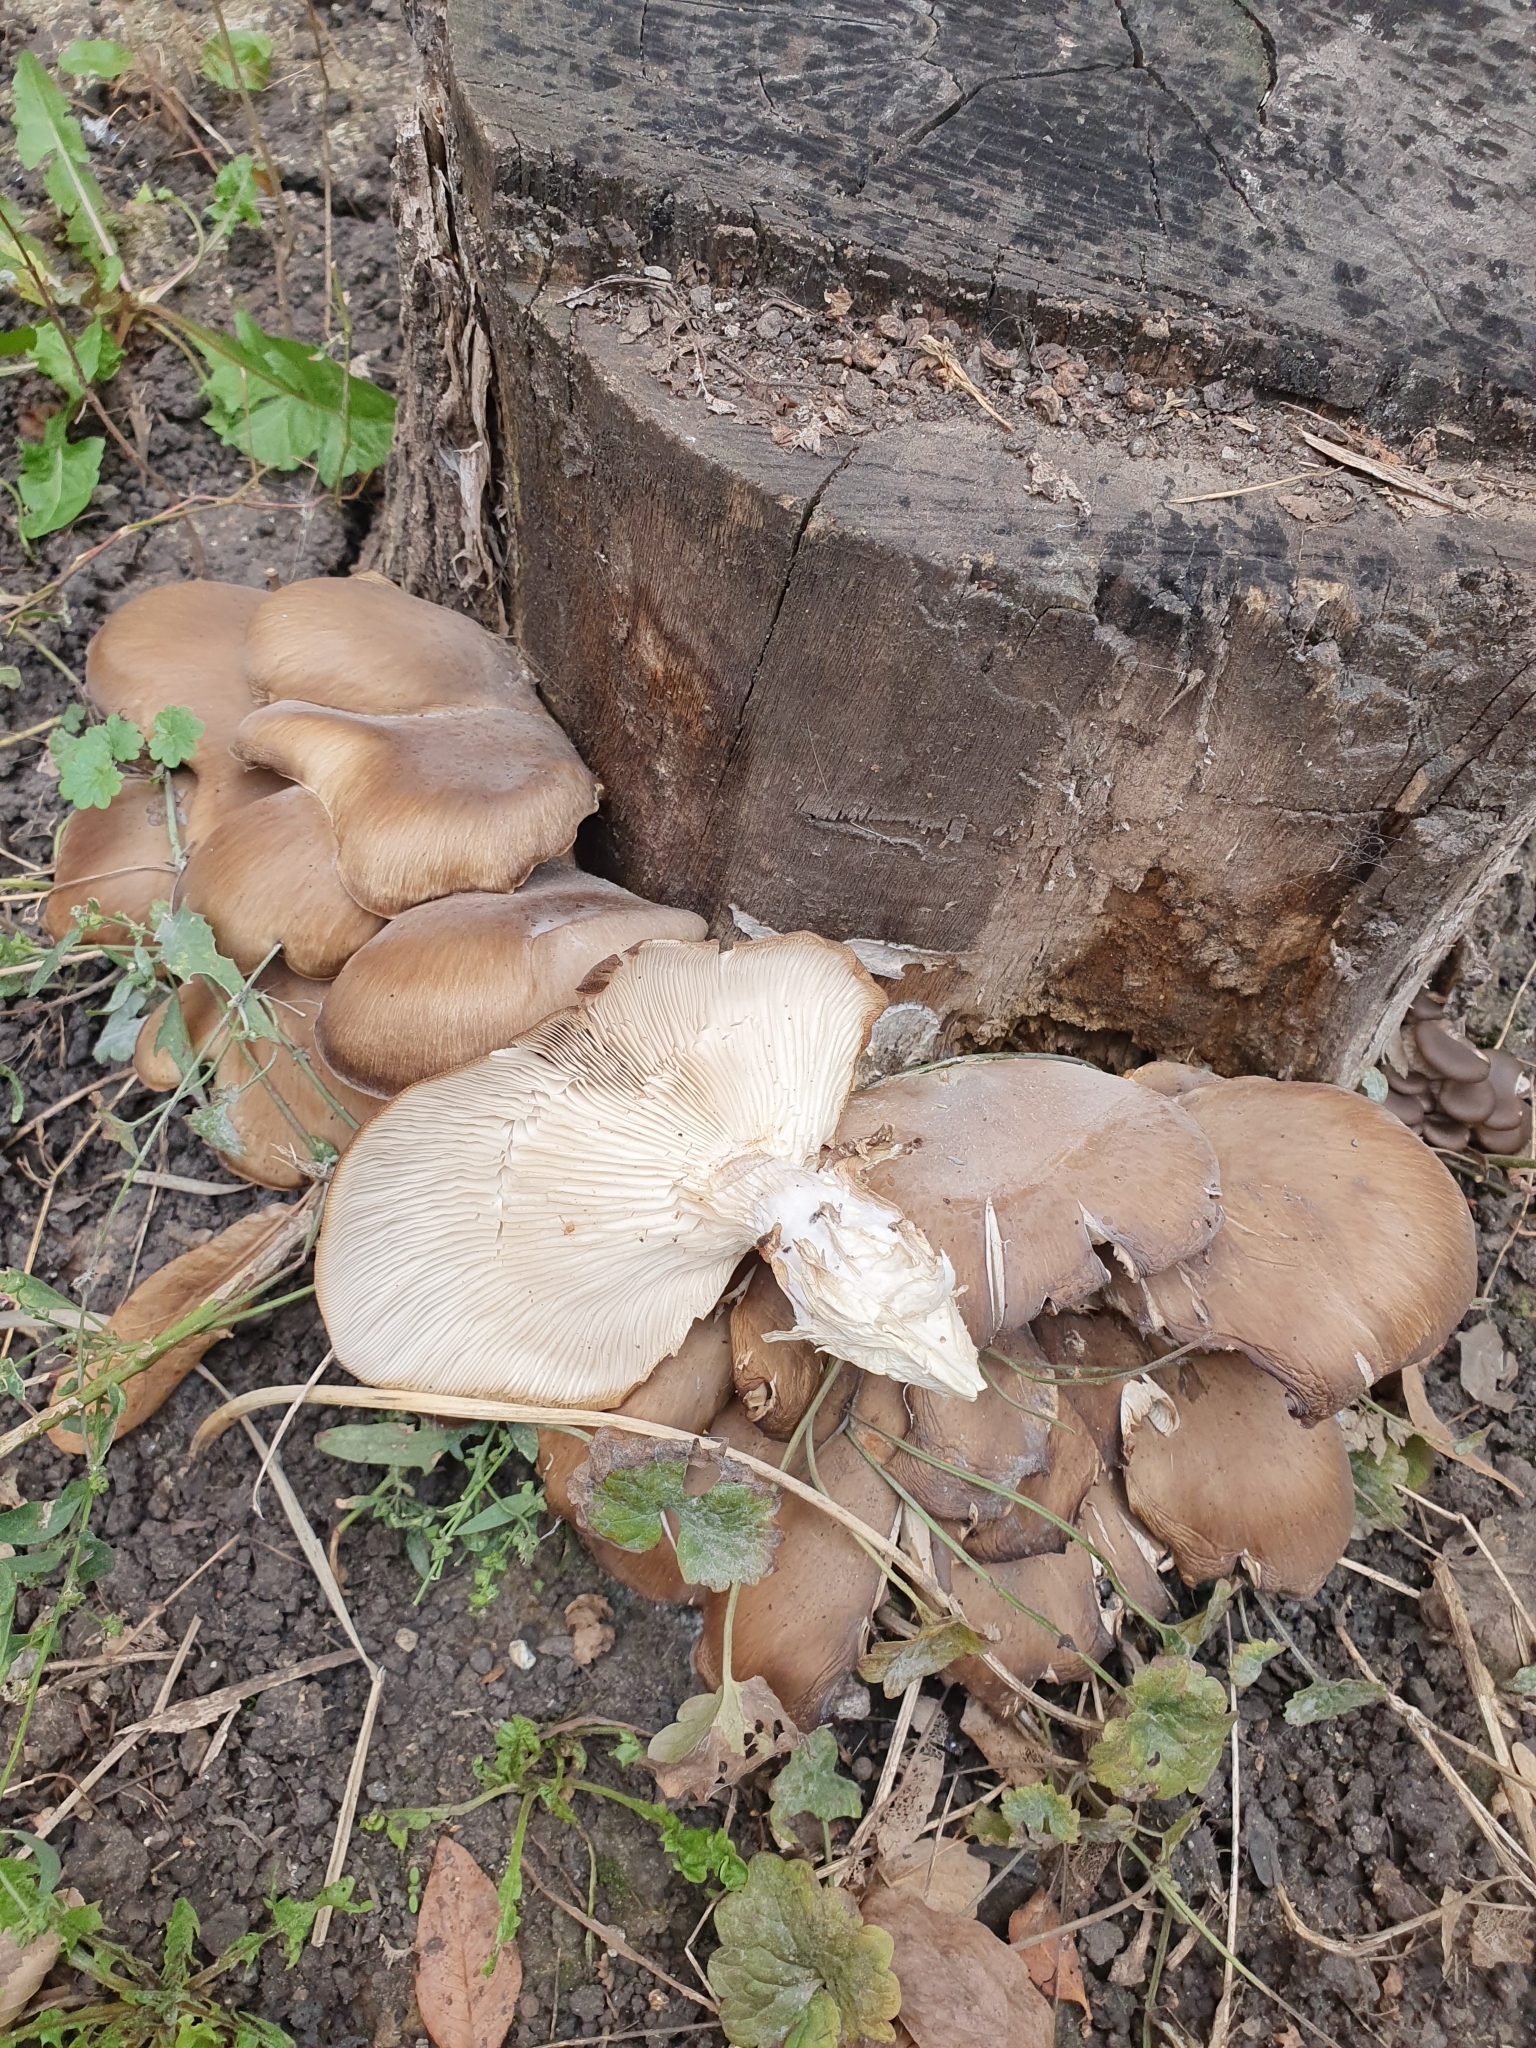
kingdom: Fungi
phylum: Basidiomycota
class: Agaricomycetes
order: Agaricales
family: Pleurotaceae
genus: Pleurotus
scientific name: Pleurotus ostreatus
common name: Oyster mushroom
